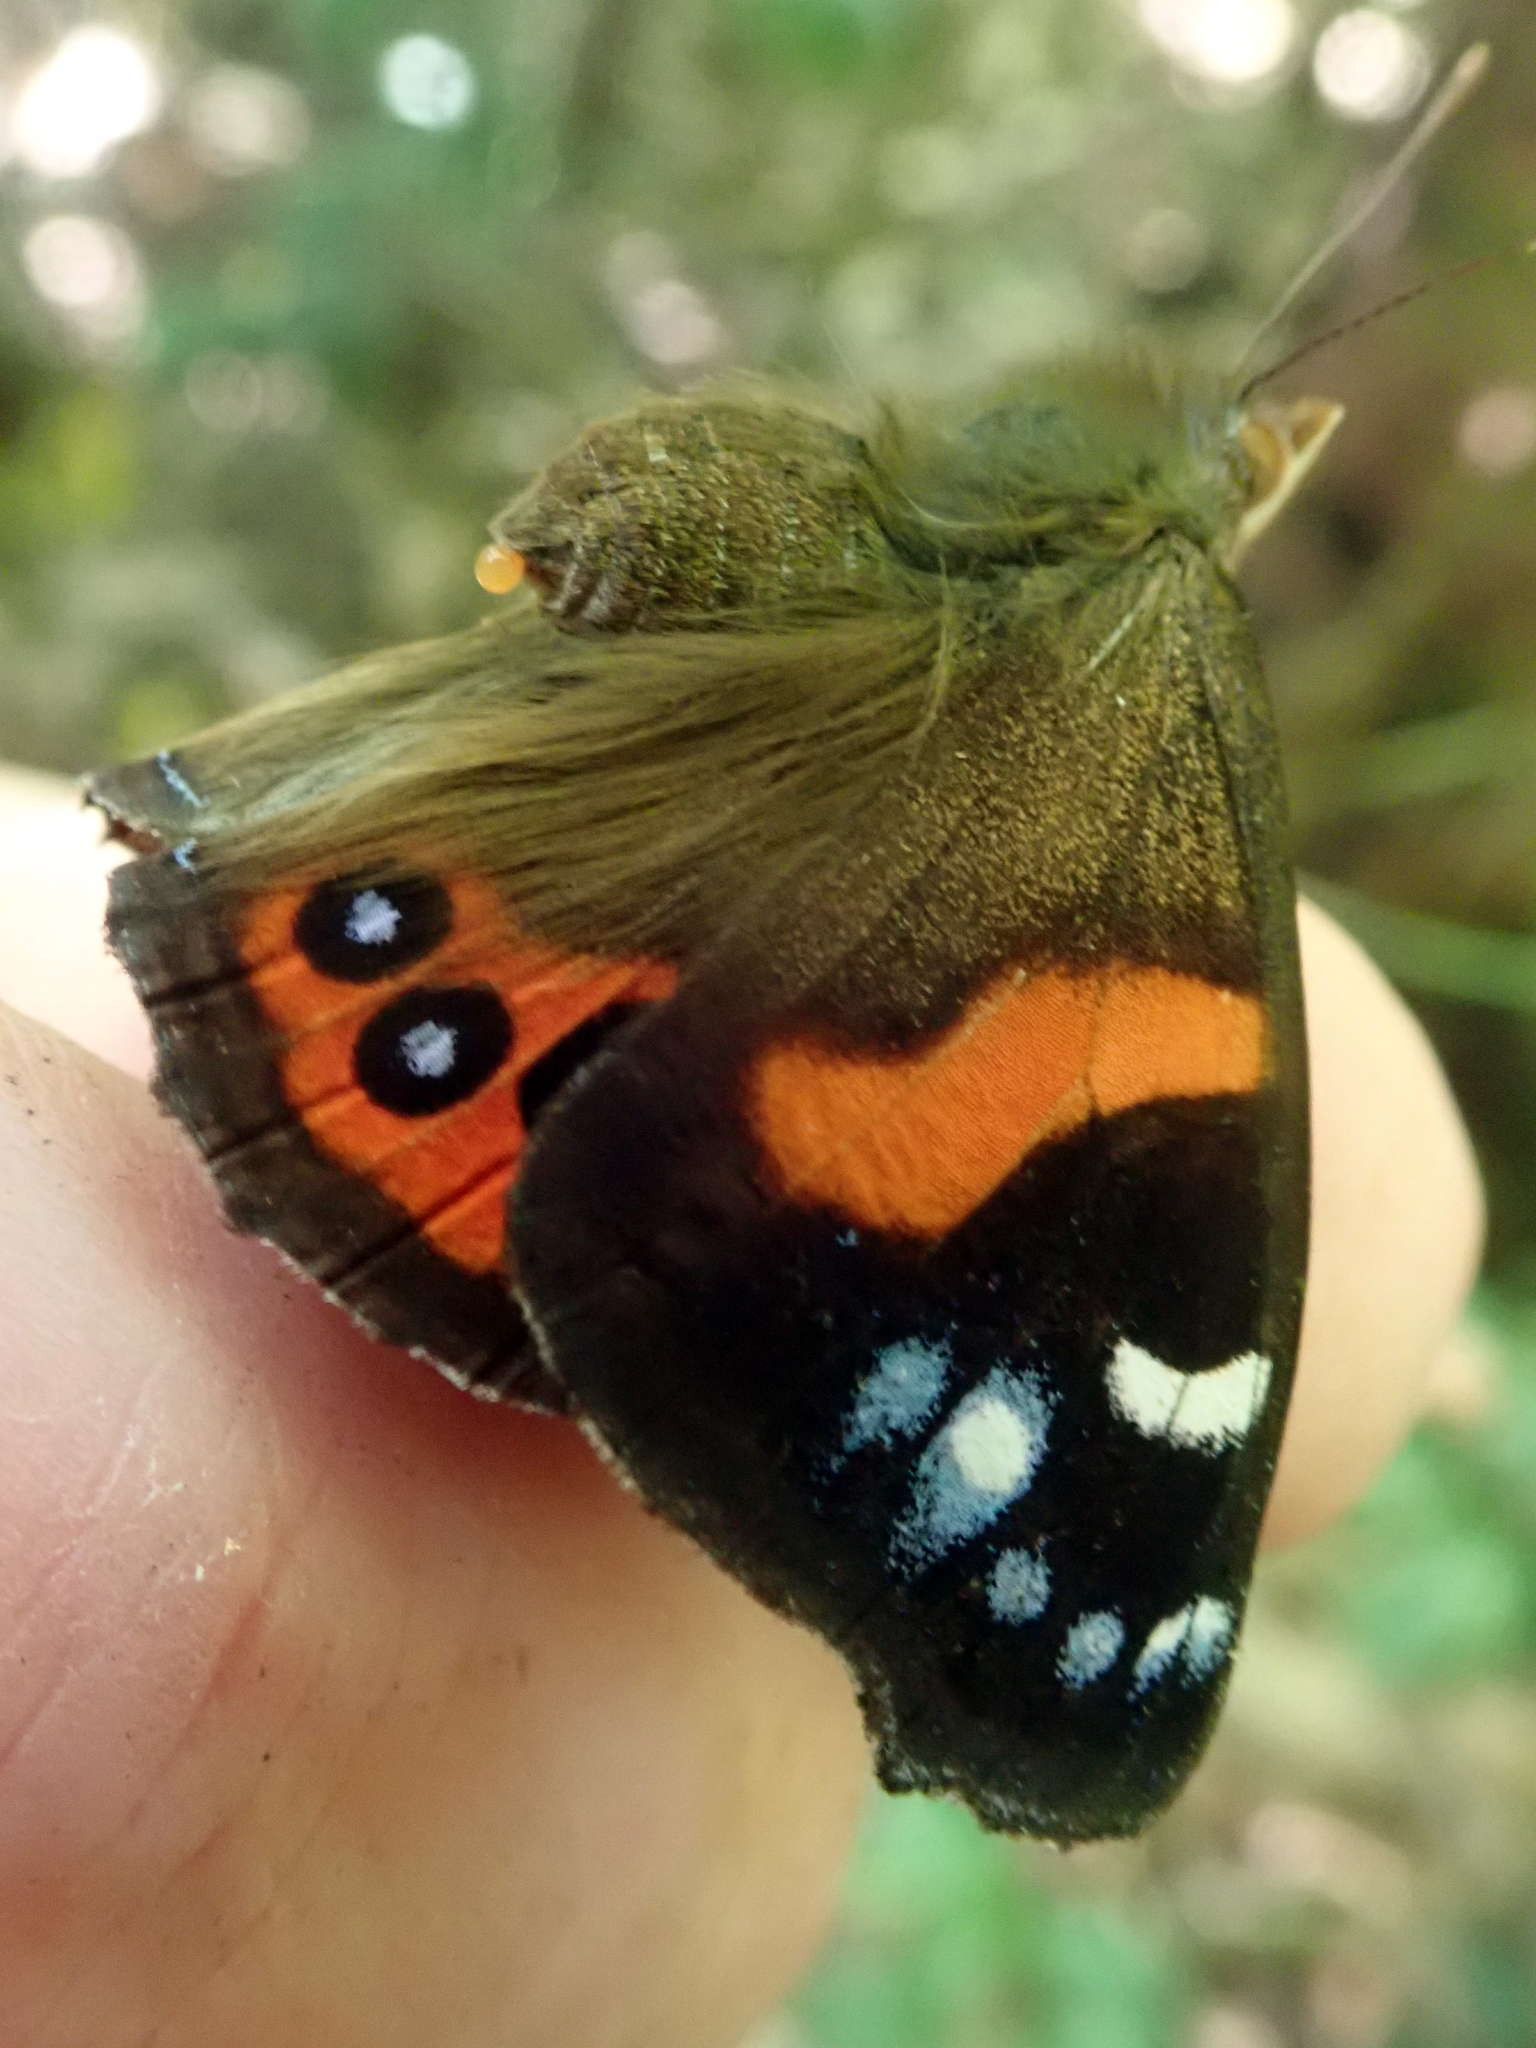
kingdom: Animalia
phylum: Arthropoda
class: Insecta
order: Lepidoptera
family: Nymphalidae
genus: Vanessa
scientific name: Vanessa gonerilla
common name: New zealand red admiral
